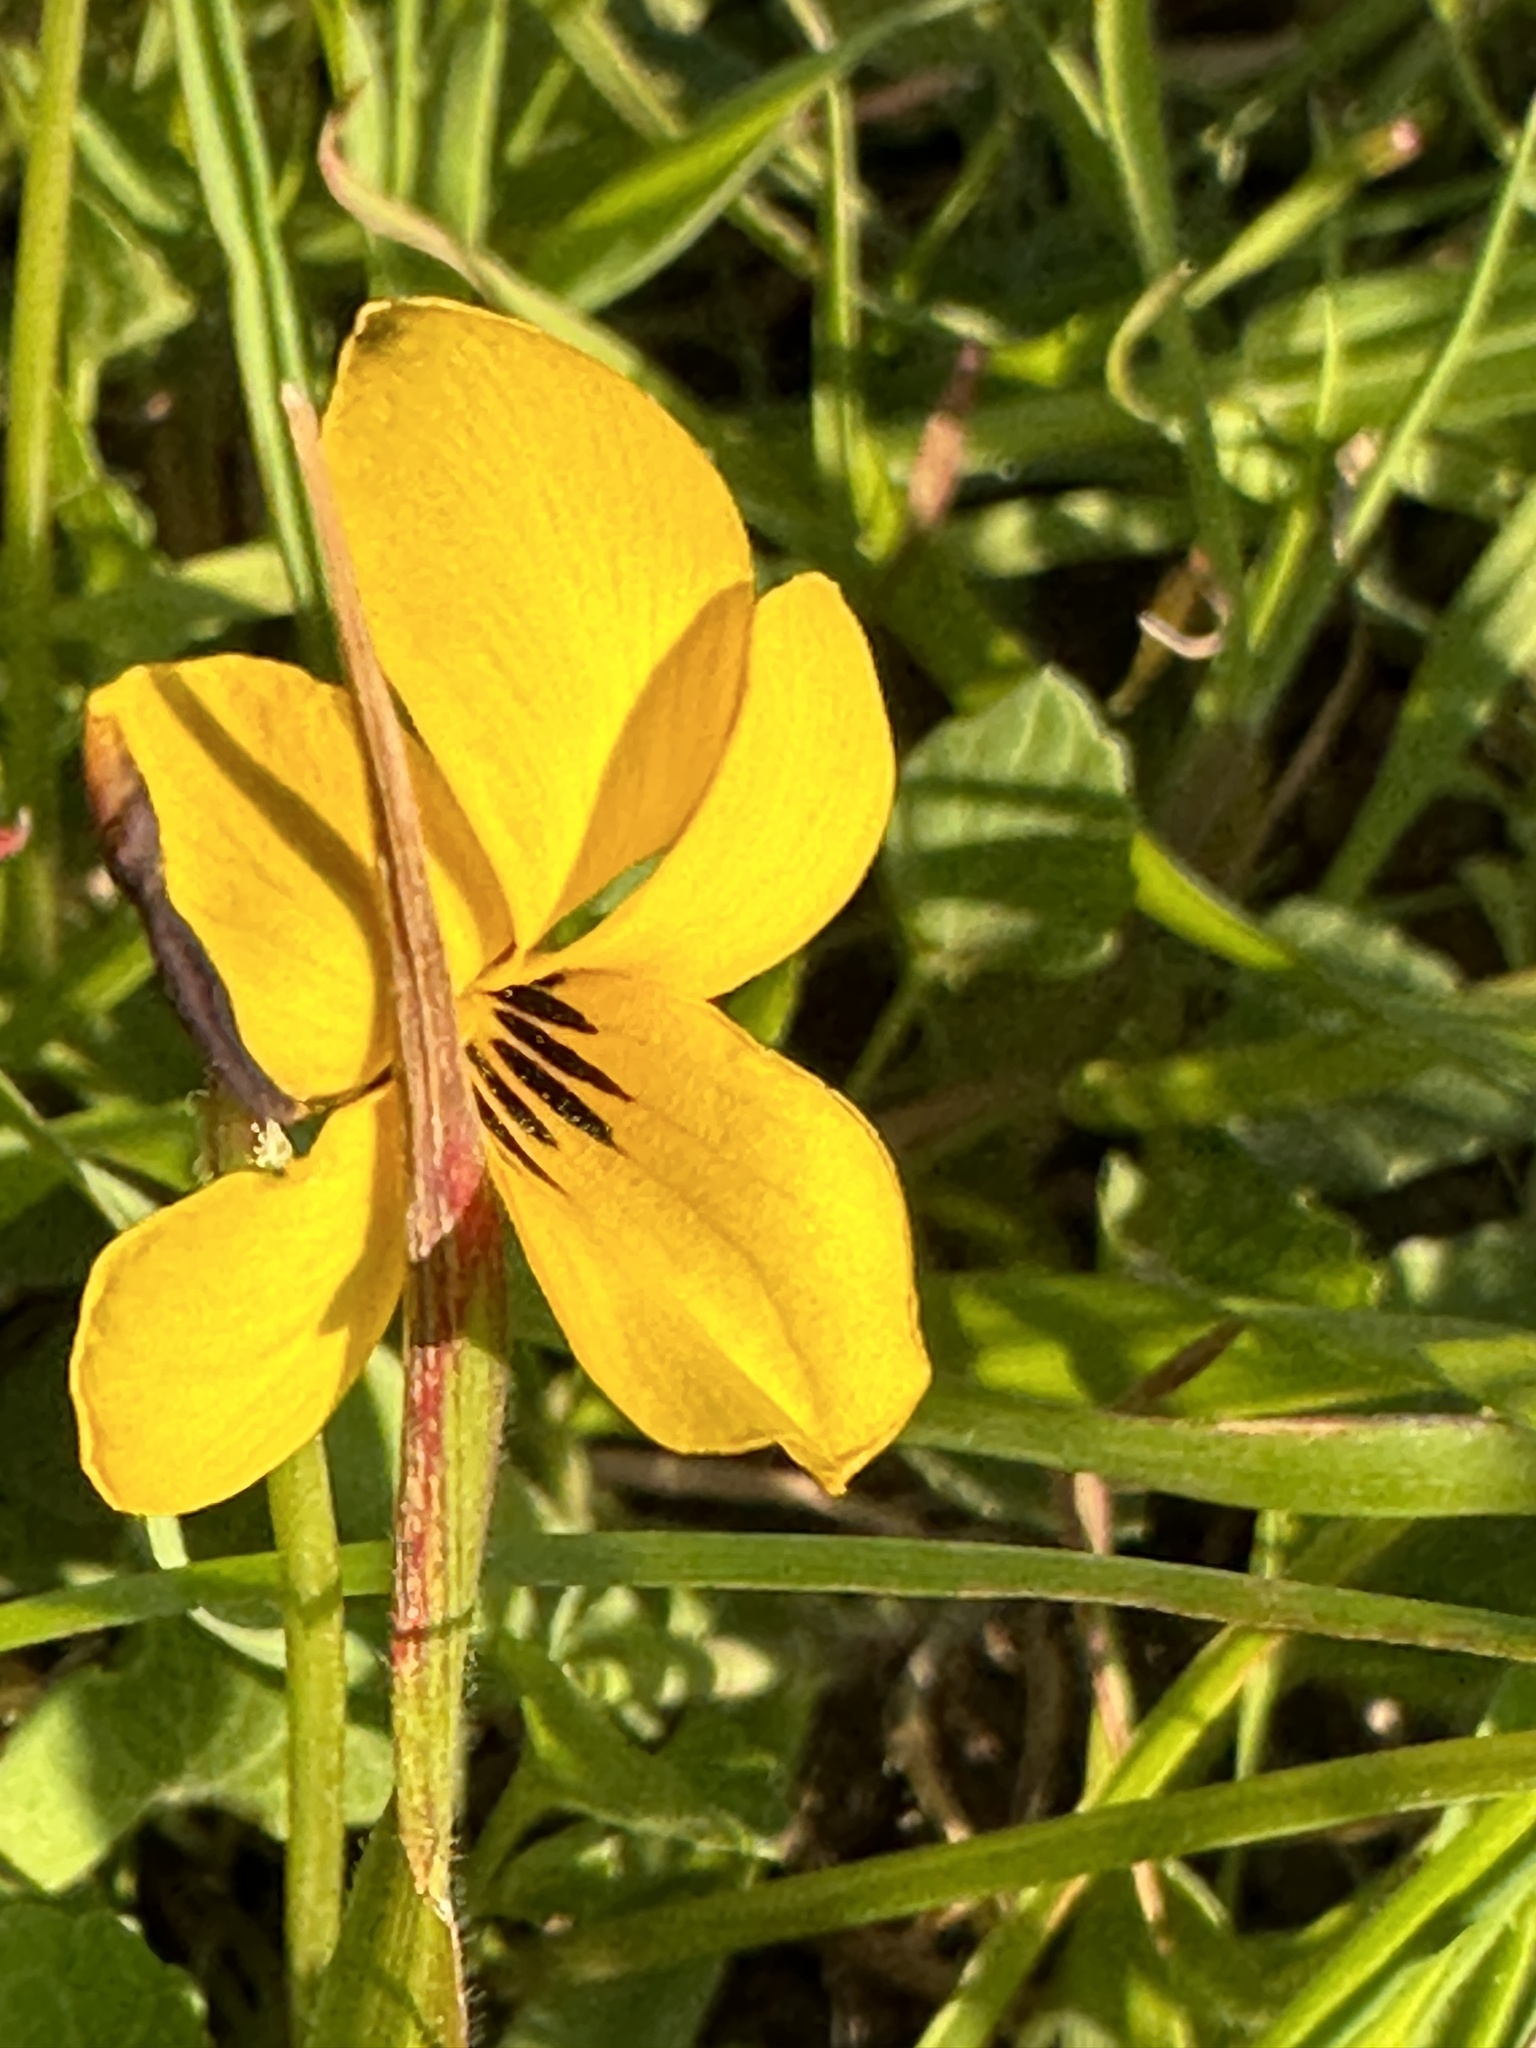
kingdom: Plantae
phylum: Tracheophyta
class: Magnoliopsida
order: Malpighiales
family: Violaceae
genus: Viola
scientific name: Viola pedunculata
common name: California golden violet
